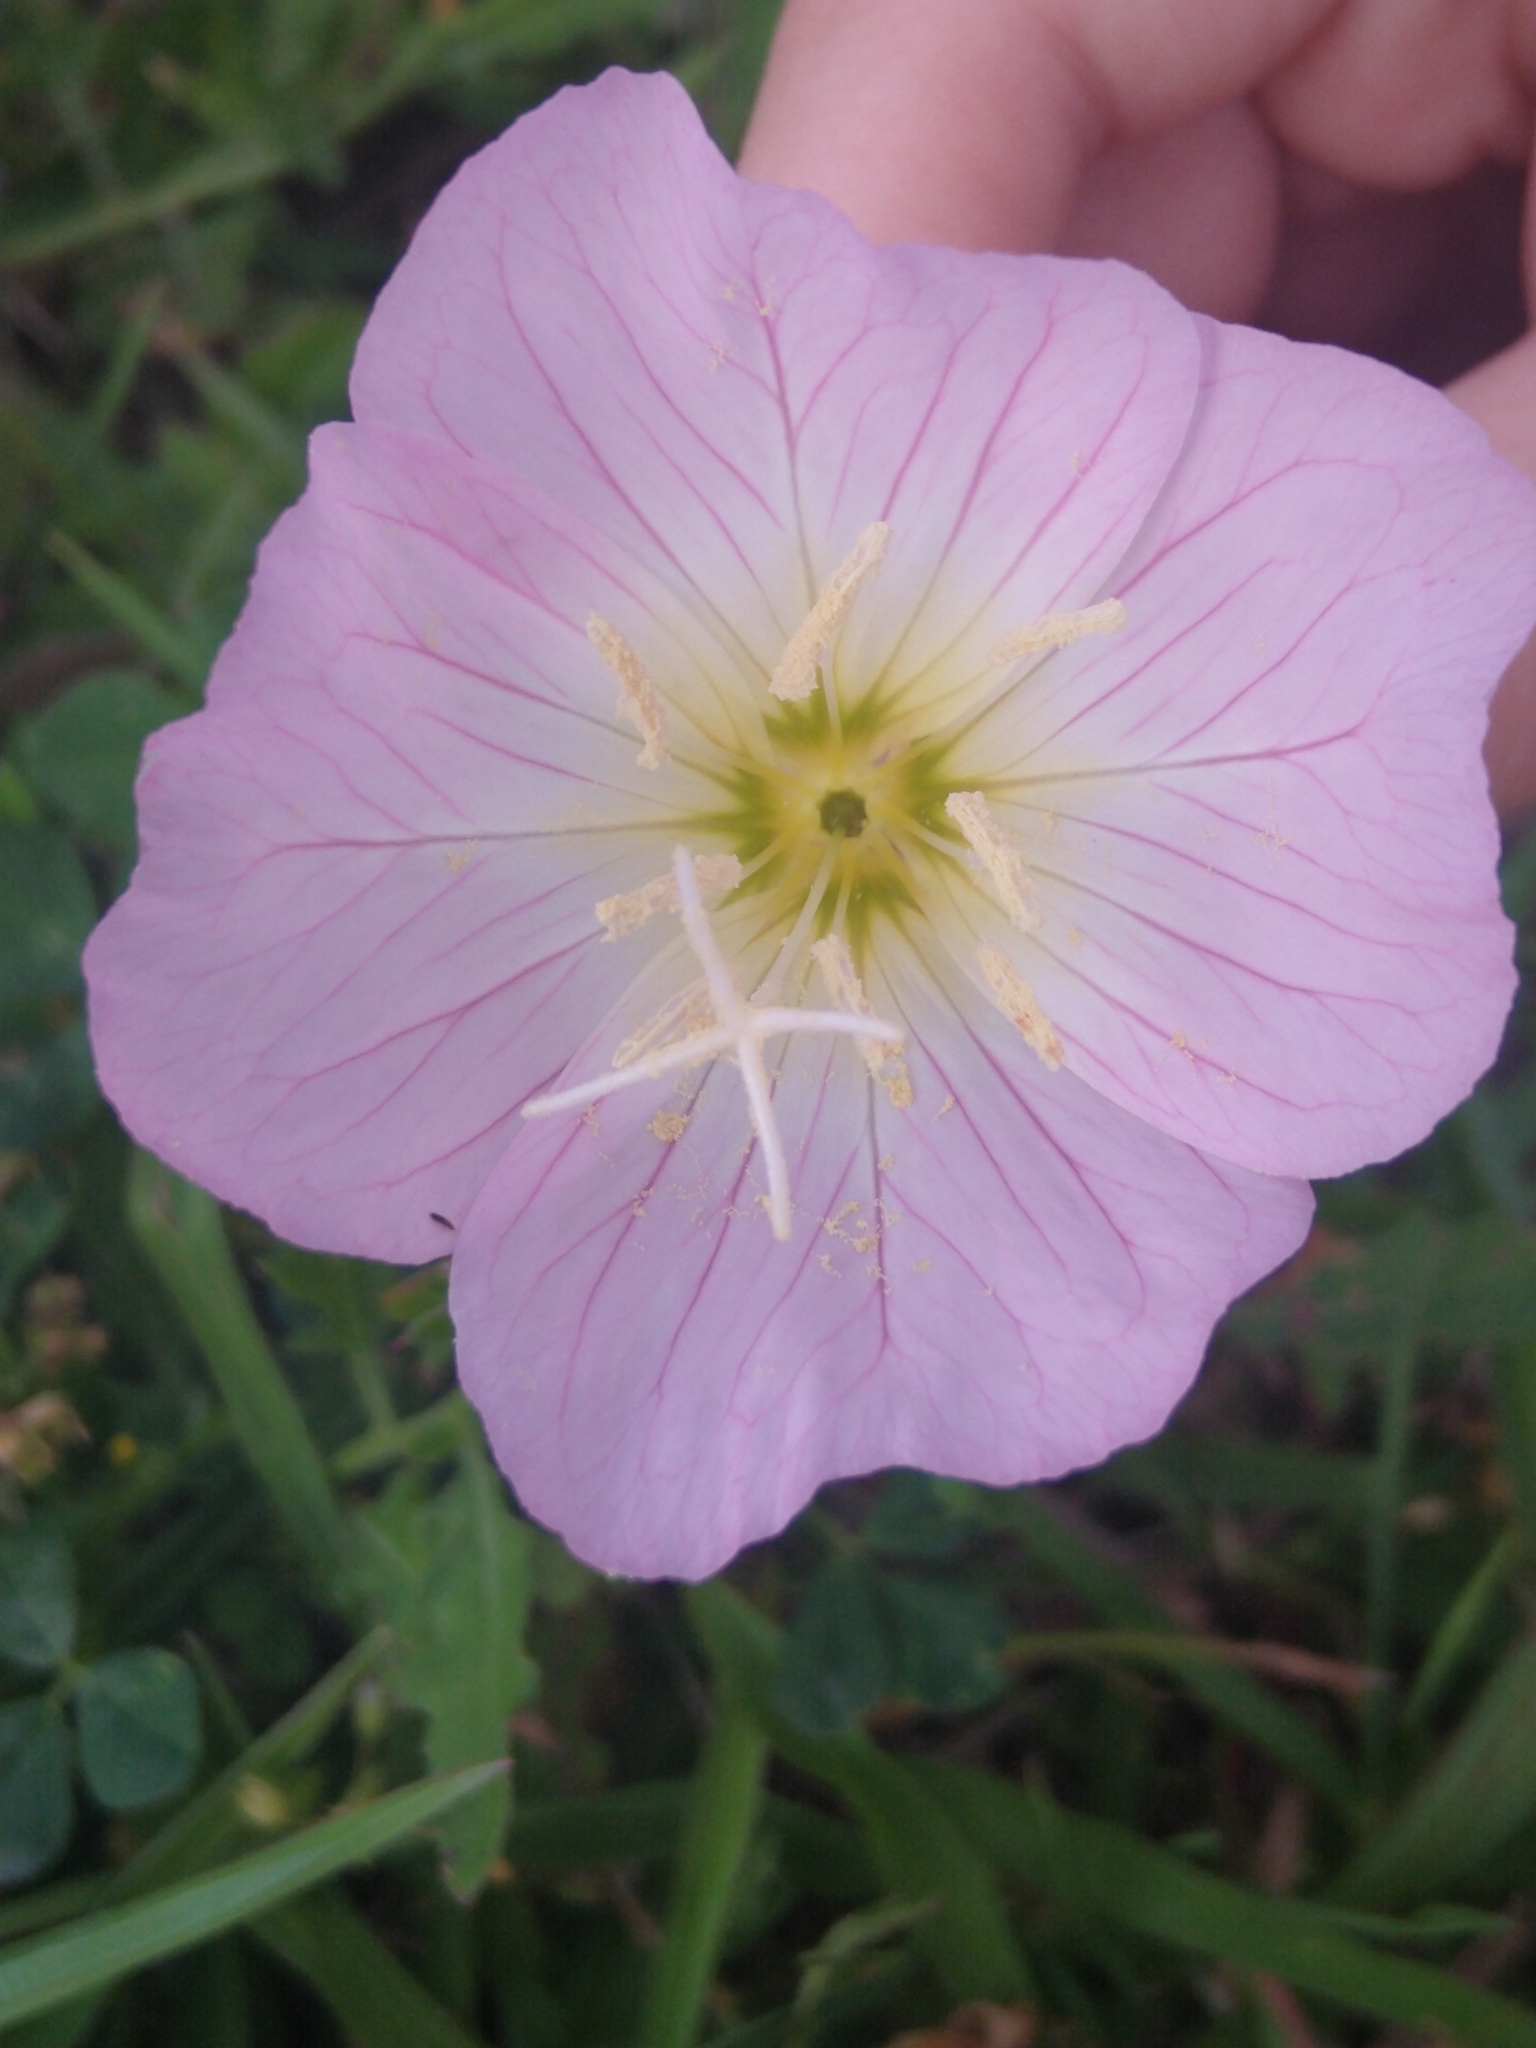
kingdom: Plantae
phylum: Tracheophyta
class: Magnoliopsida
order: Myrtales
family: Onagraceae
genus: Oenothera
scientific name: Oenothera speciosa
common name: White evening-primrose
